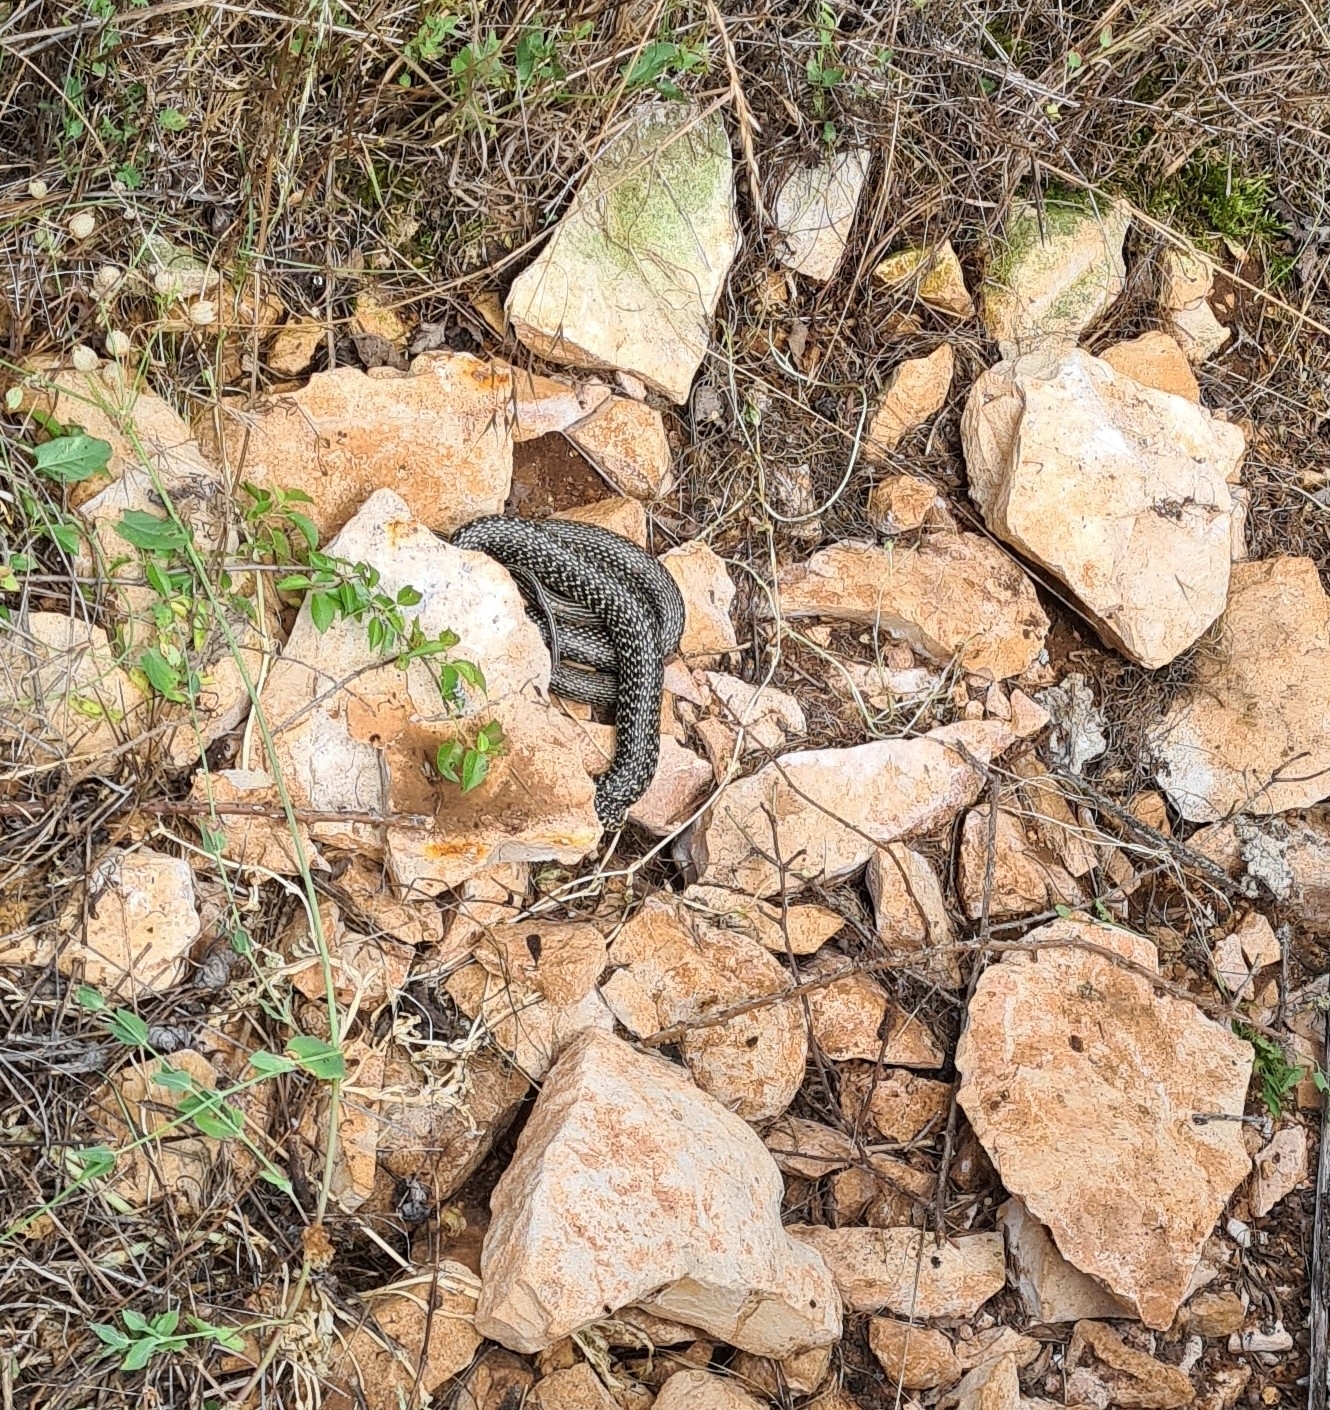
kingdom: Animalia
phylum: Chordata
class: Squamata
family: Colubridae
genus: Hierophis
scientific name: Hierophis viridiflavus
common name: Green whip snake
